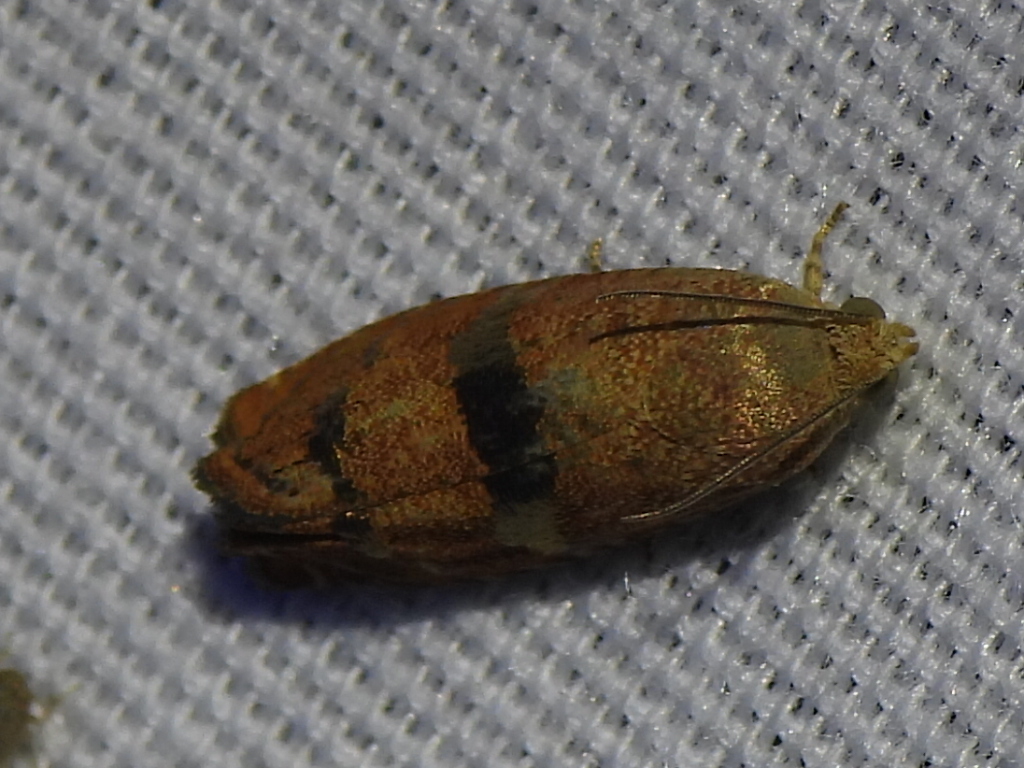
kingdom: Animalia
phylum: Arthropoda
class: Insecta
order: Lepidoptera
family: Tortricidae
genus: Cydia
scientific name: Cydia latiferreana
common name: Filbertworm moth
